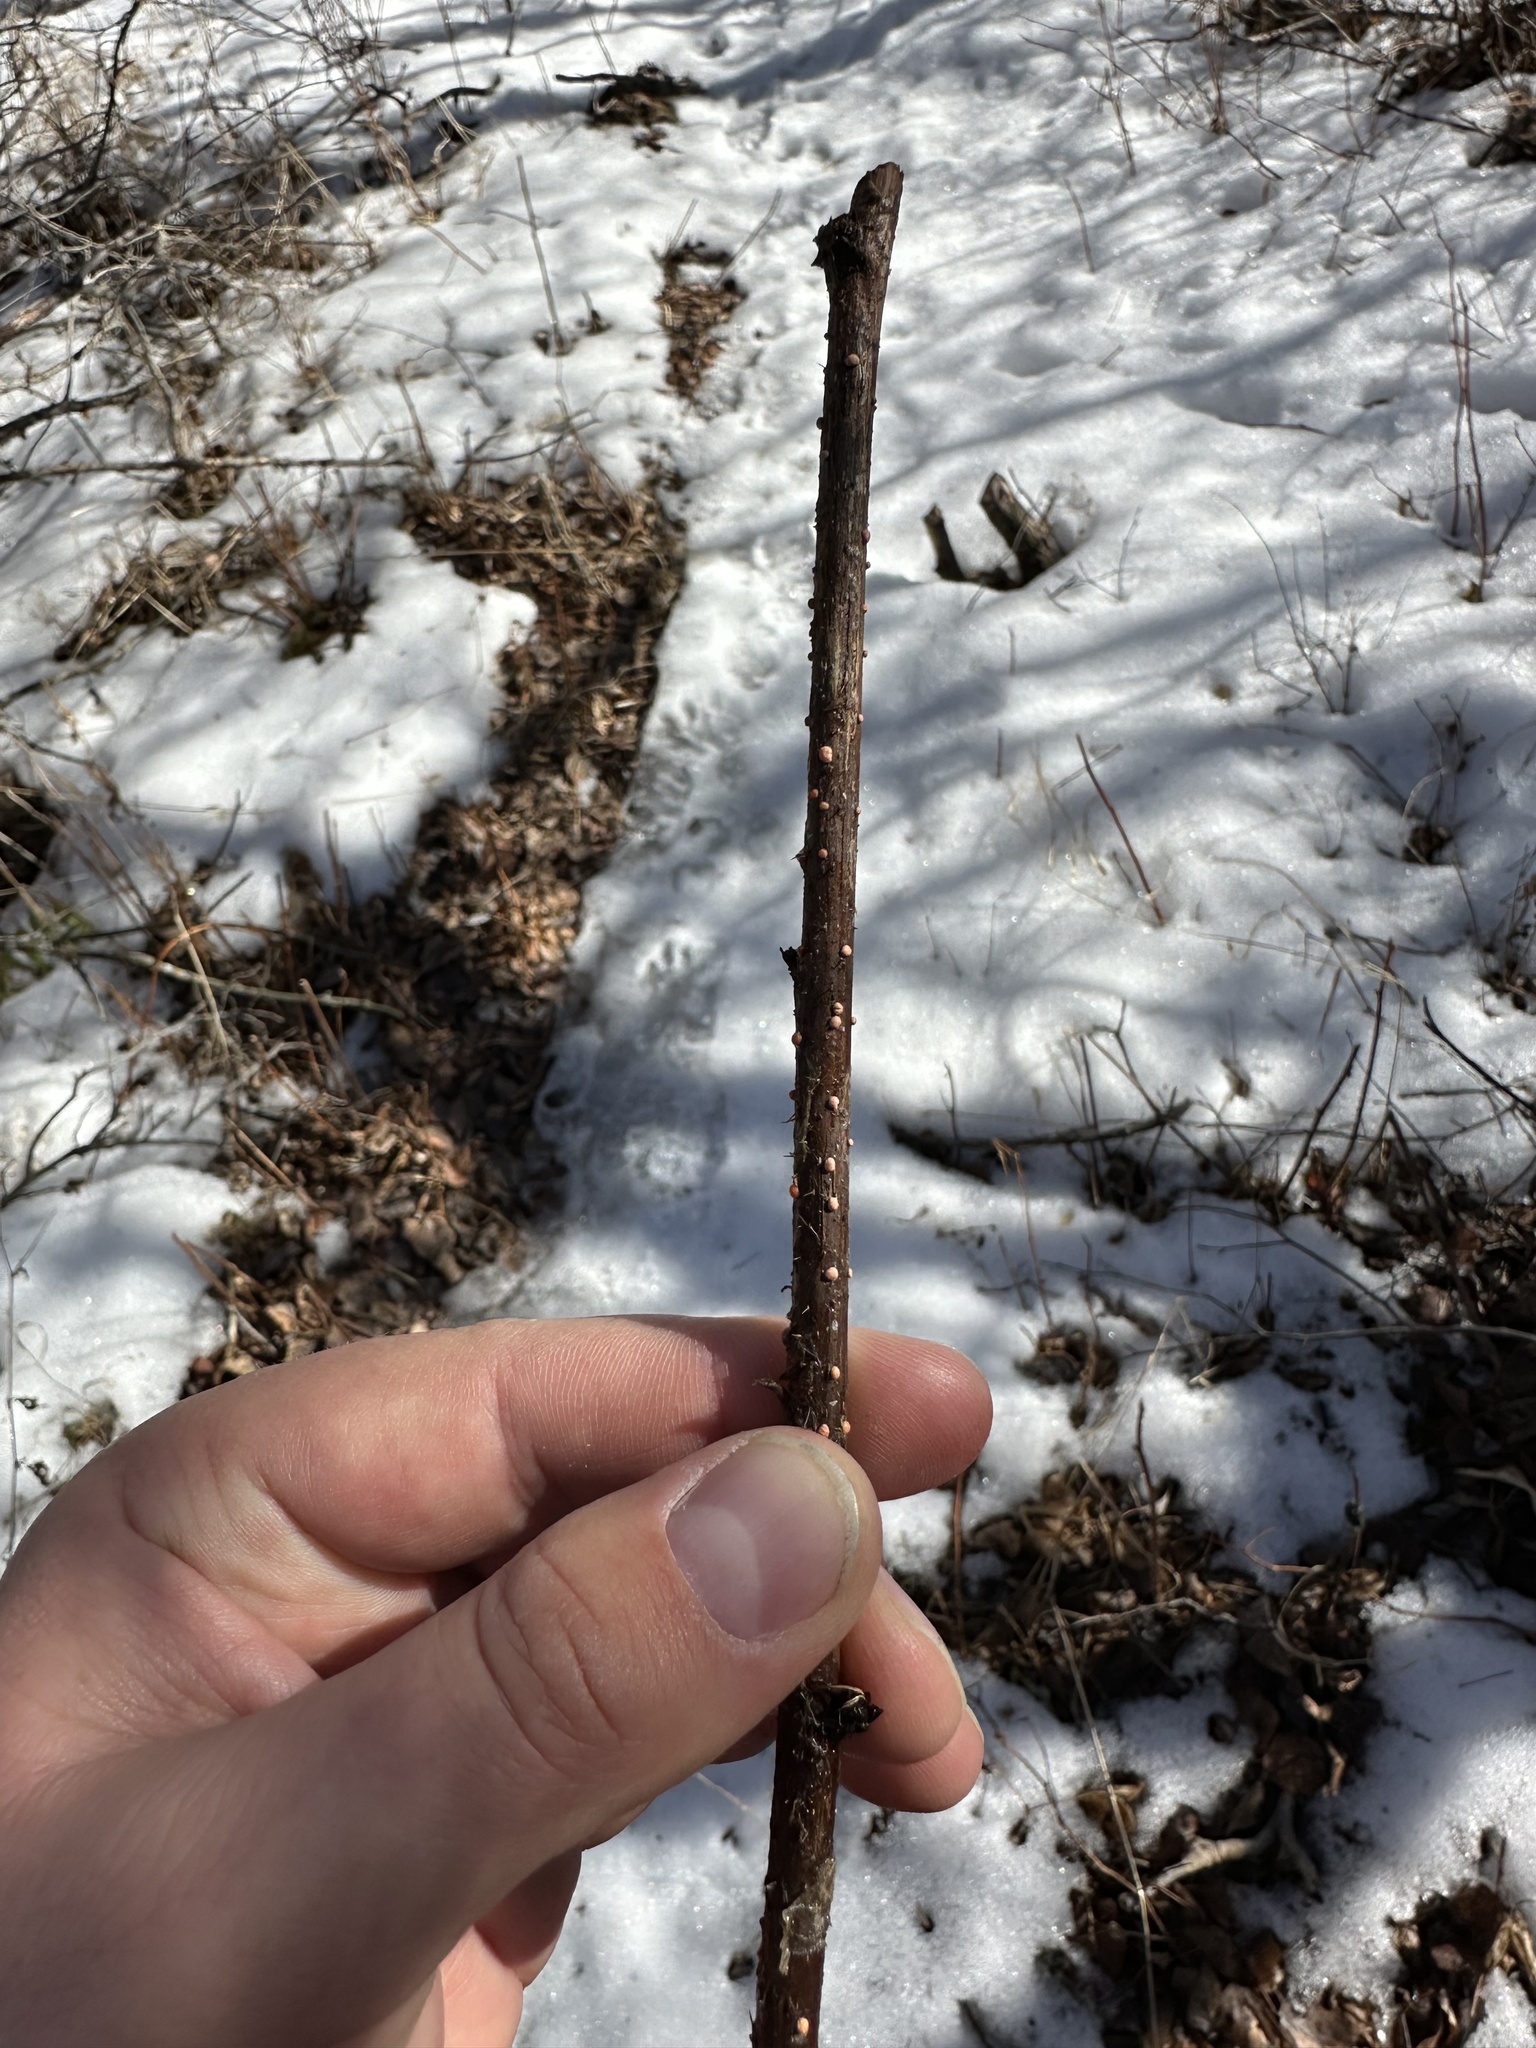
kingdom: Fungi
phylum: Ascomycota
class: Sordariomycetes
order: Hypocreales
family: Nectriaceae
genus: Nectria
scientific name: Nectria cinnabarina
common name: Coral spot
